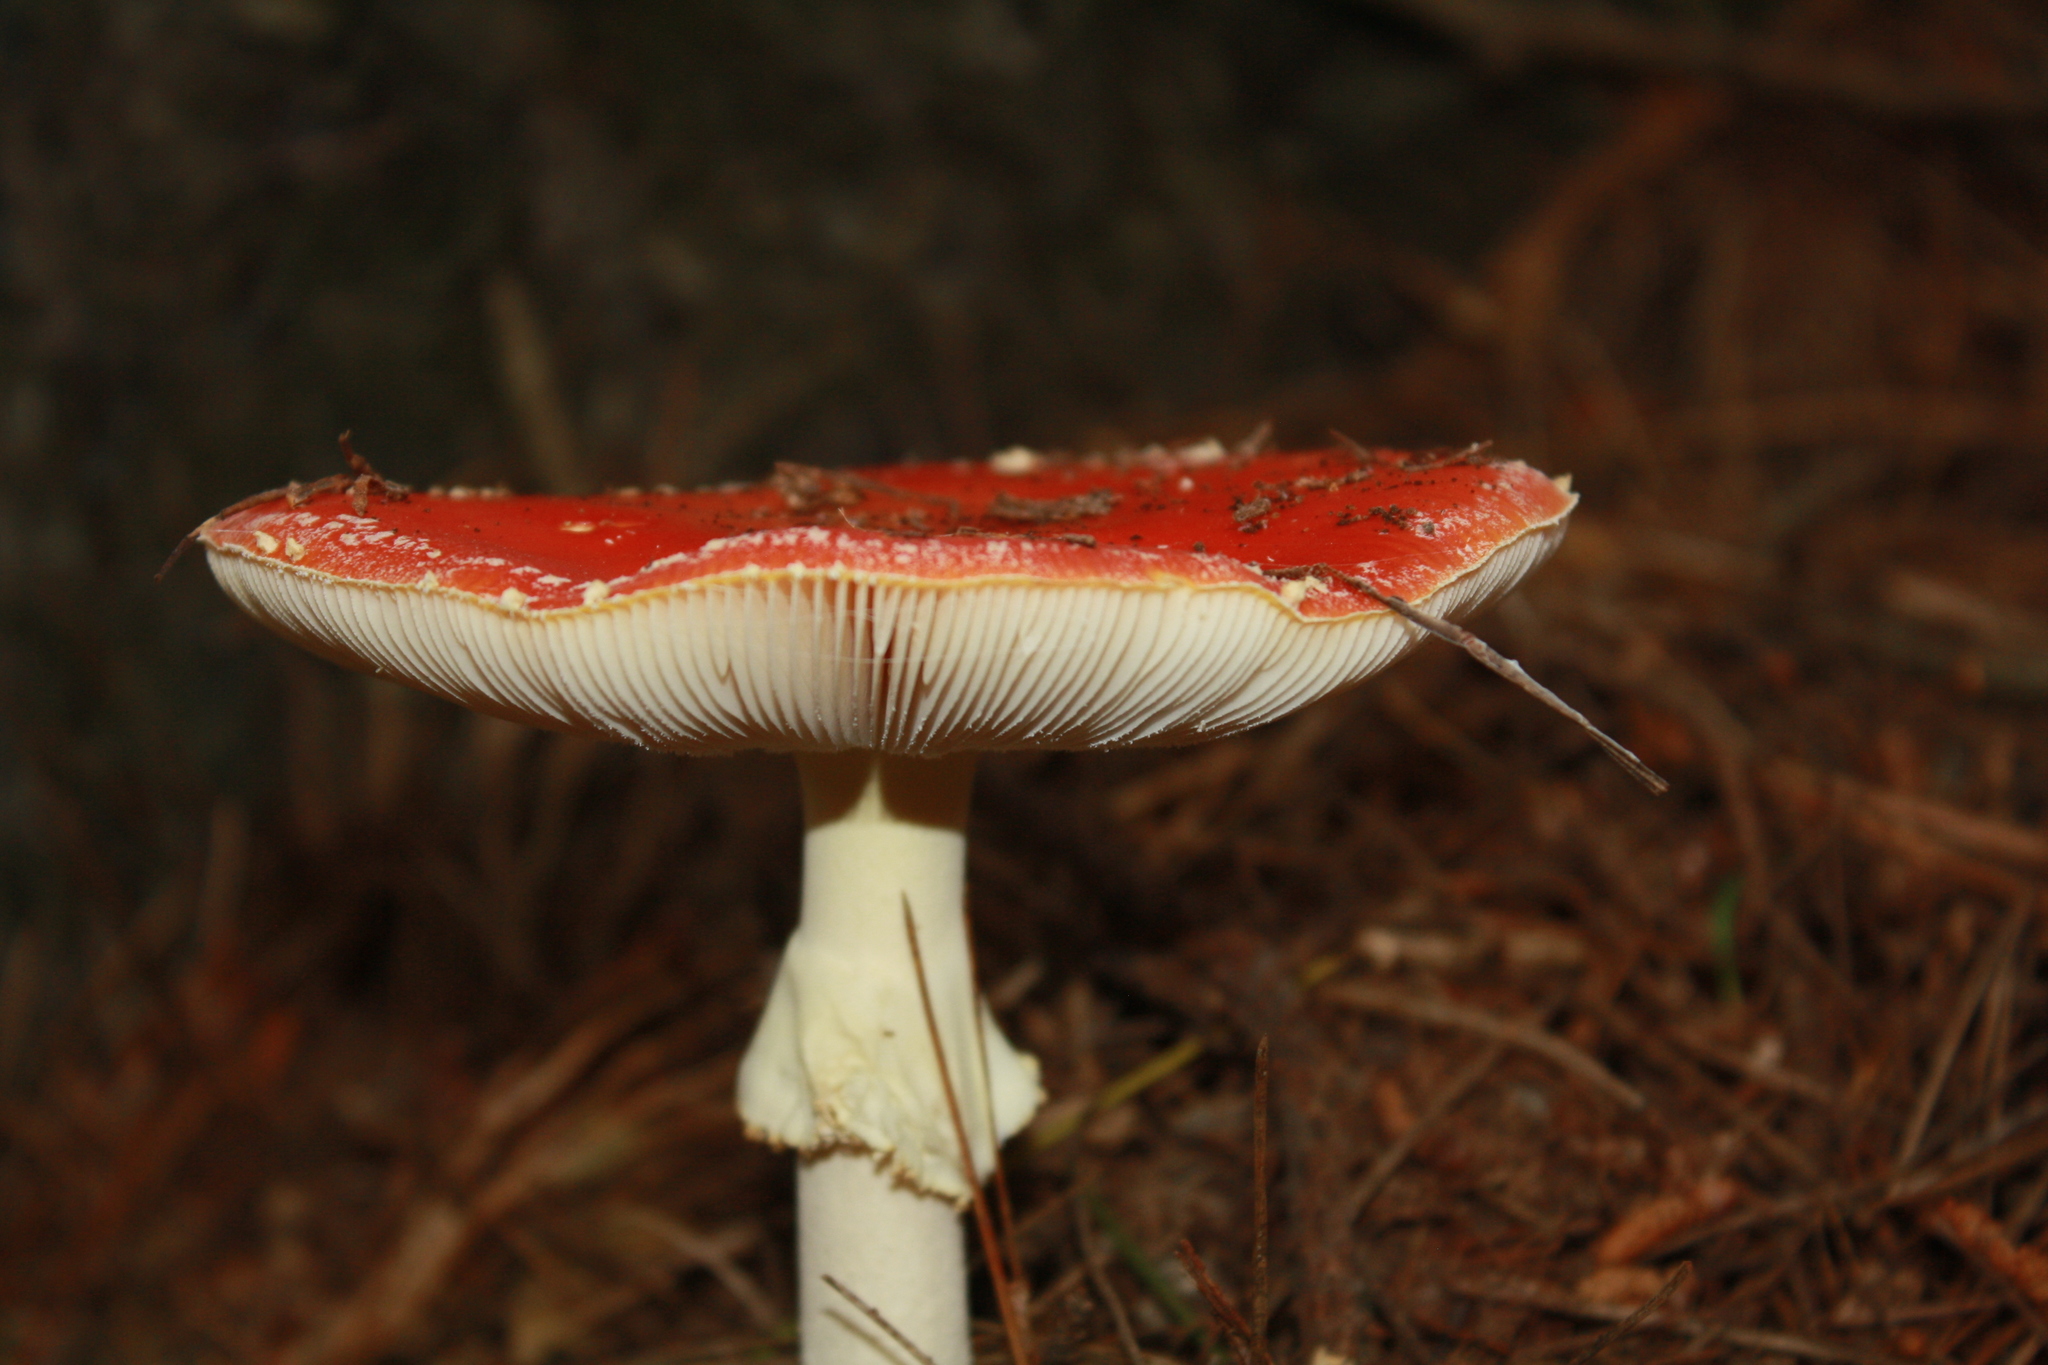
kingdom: Fungi
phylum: Basidiomycota
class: Agaricomycetes
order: Agaricales
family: Amanitaceae
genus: Amanita
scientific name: Amanita muscaria
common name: Fly agaric
